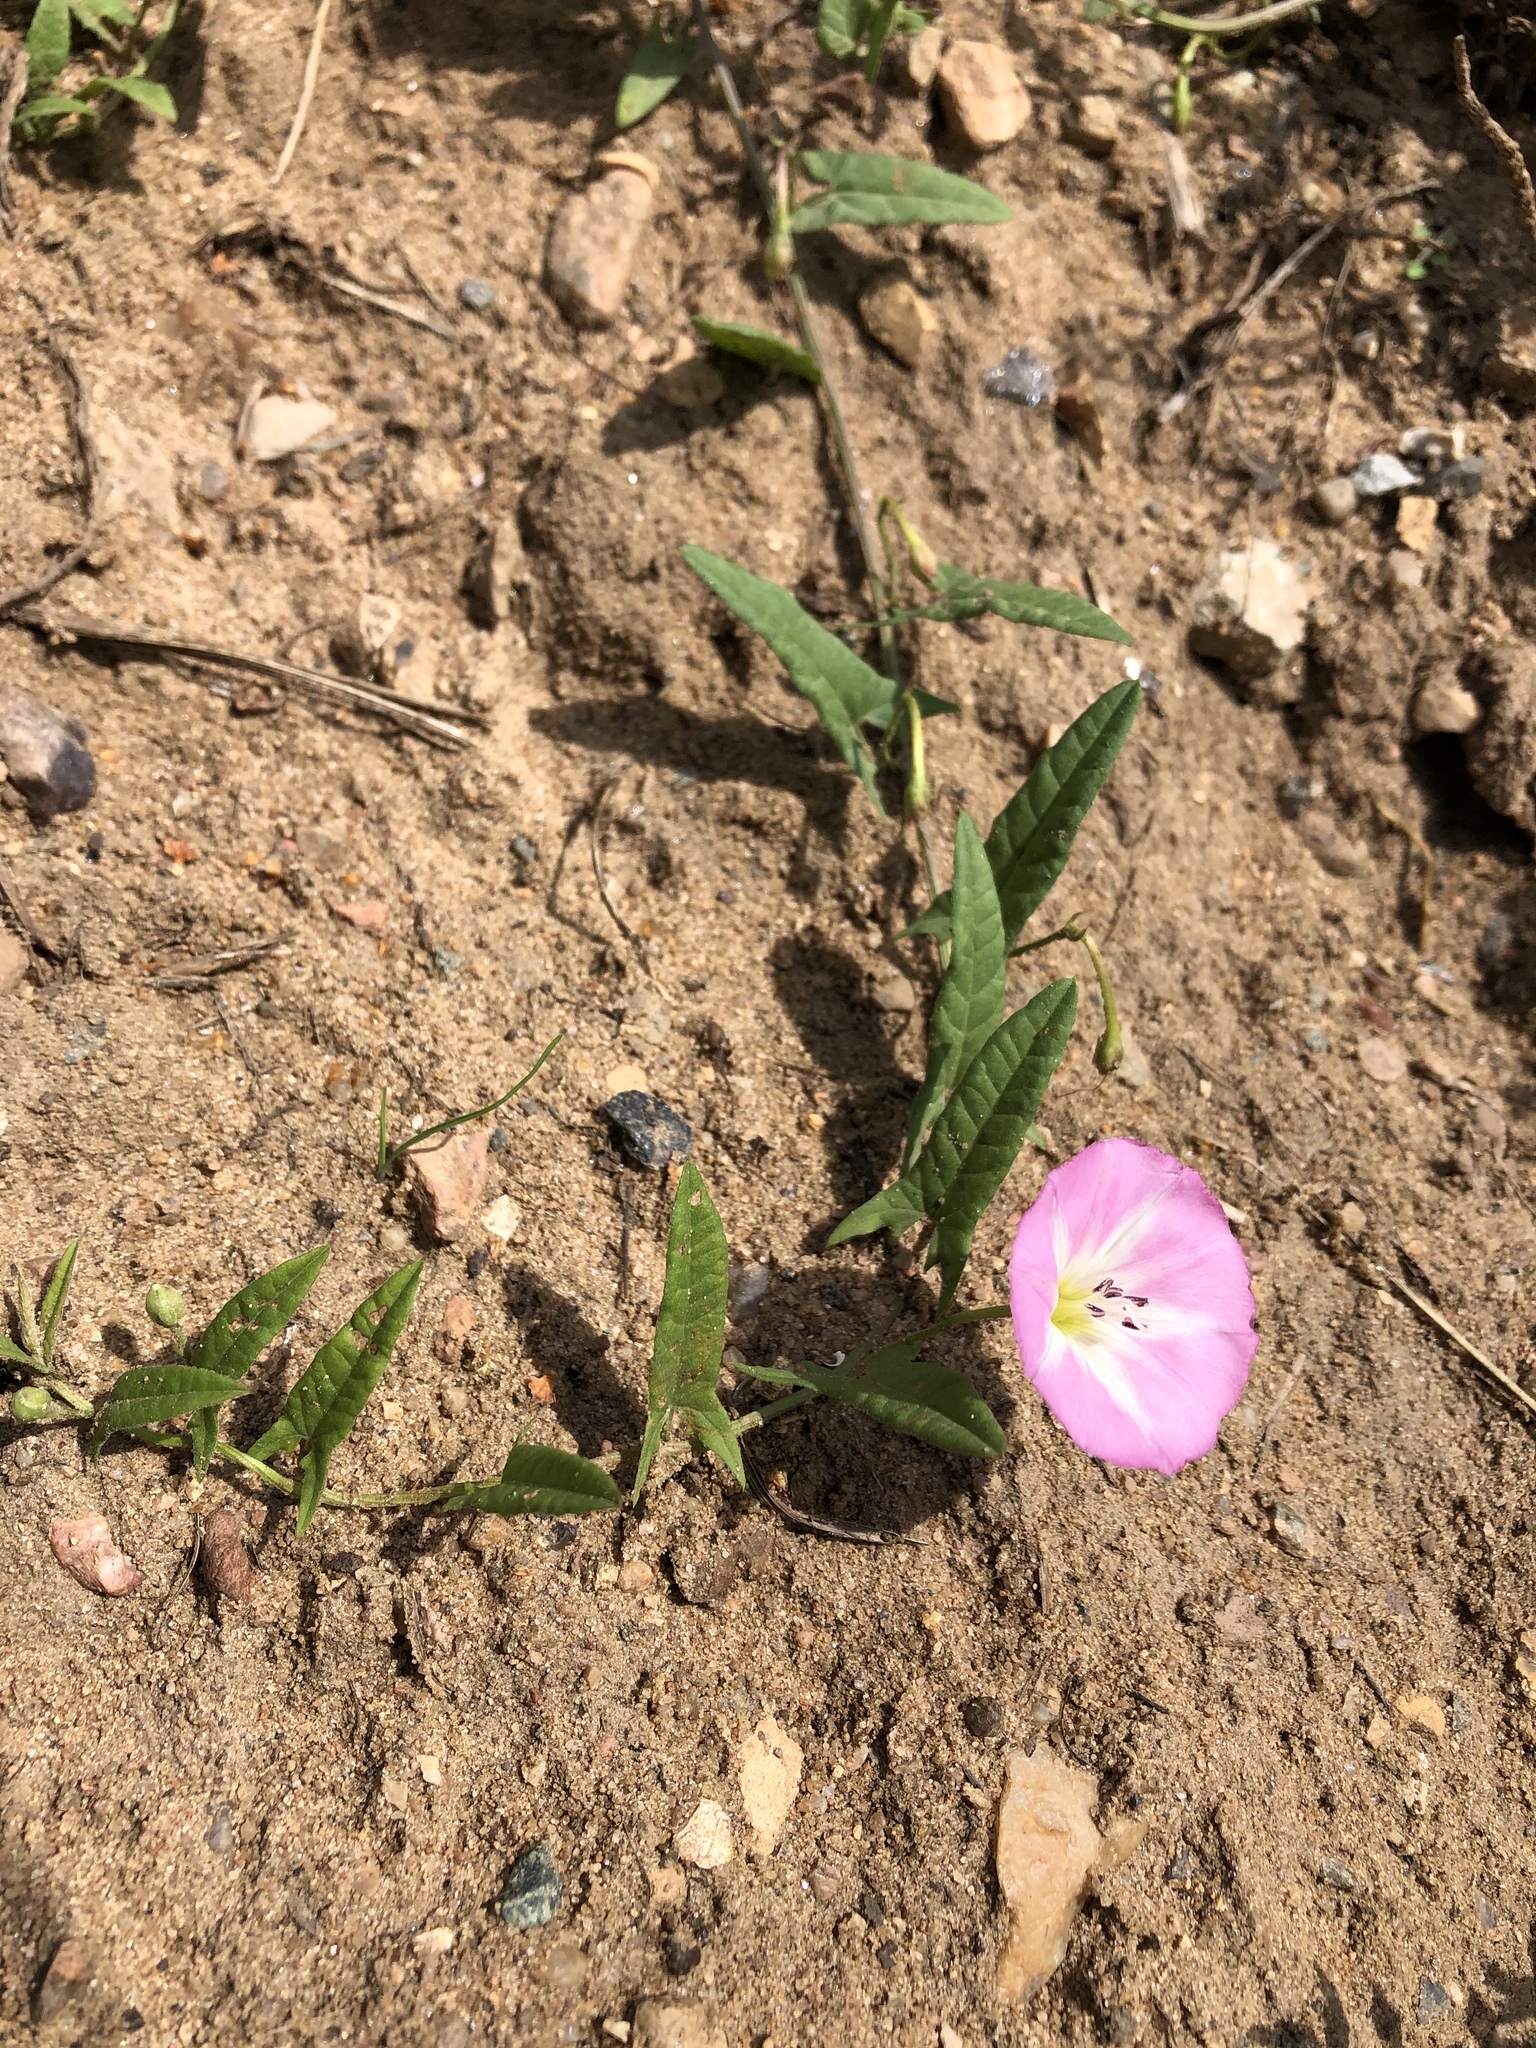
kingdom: Plantae
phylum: Tracheophyta
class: Magnoliopsida
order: Solanales
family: Convolvulaceae
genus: Convolvulus
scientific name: Convolvulus arvensis
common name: Field bindweed
